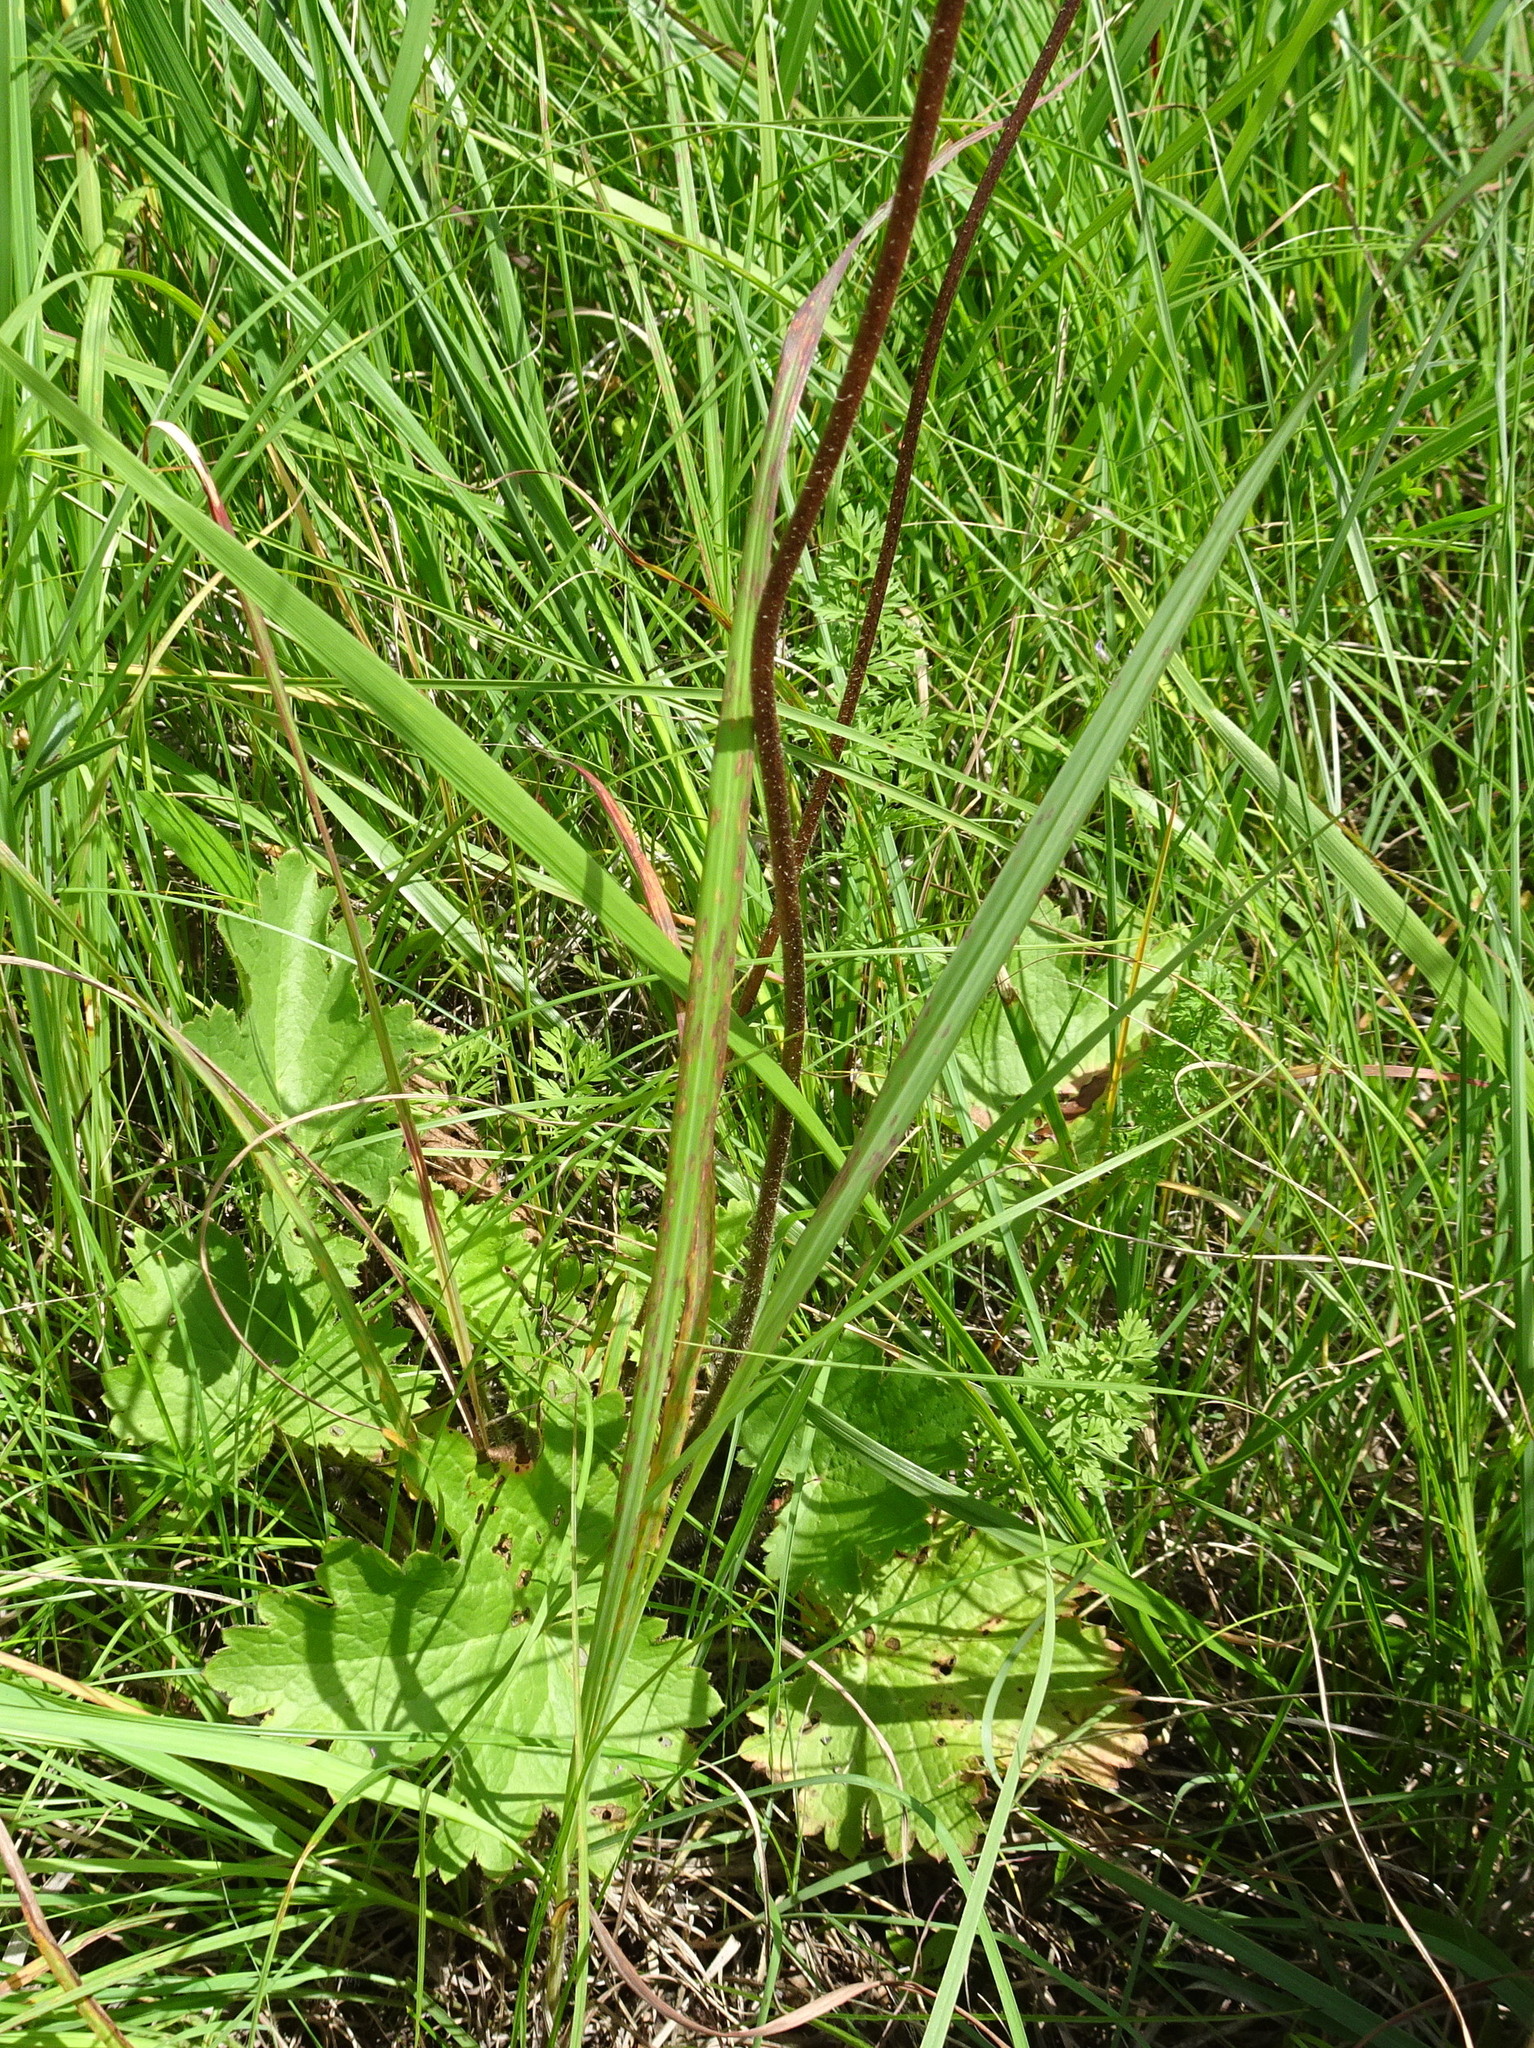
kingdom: Plantae
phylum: Tracheophyta
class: Magnoliopsida
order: Saxifragales
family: Saxifragaceae
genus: Heuchera
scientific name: Heuchera richardsonii
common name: Richardson's alumroot
